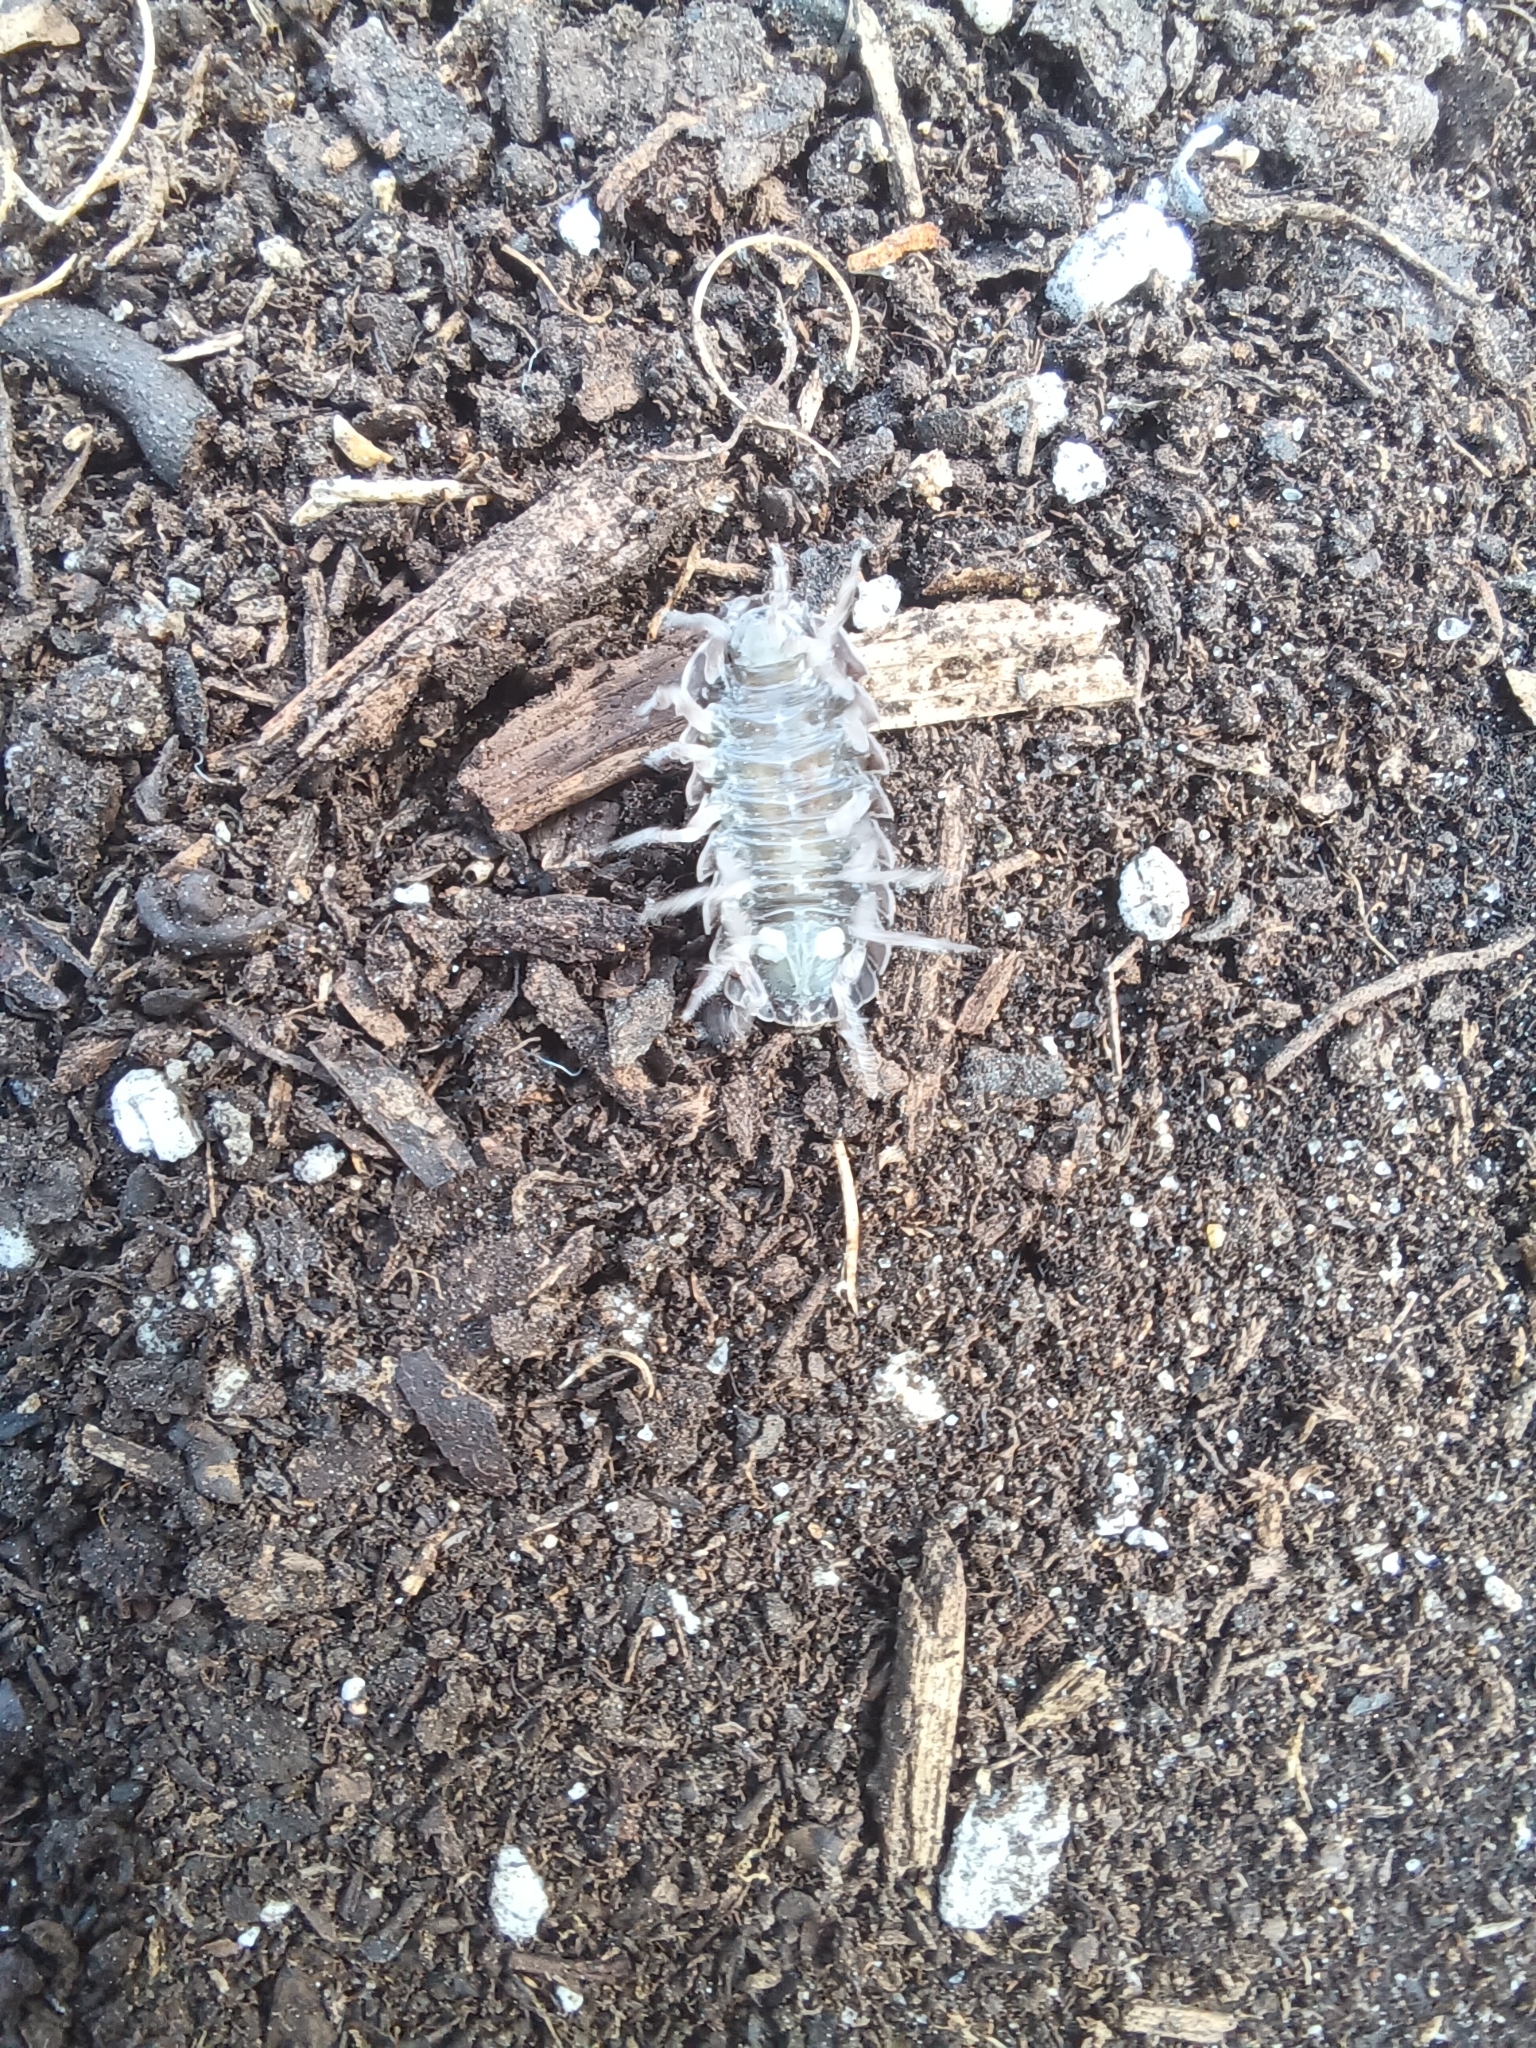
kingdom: Animalia
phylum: Arthropoda
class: Malacostraca
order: Isopoda
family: Armadillidiidae
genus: Armadillidium
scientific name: Armadillidium vulgare
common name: Common pill woodlouse
